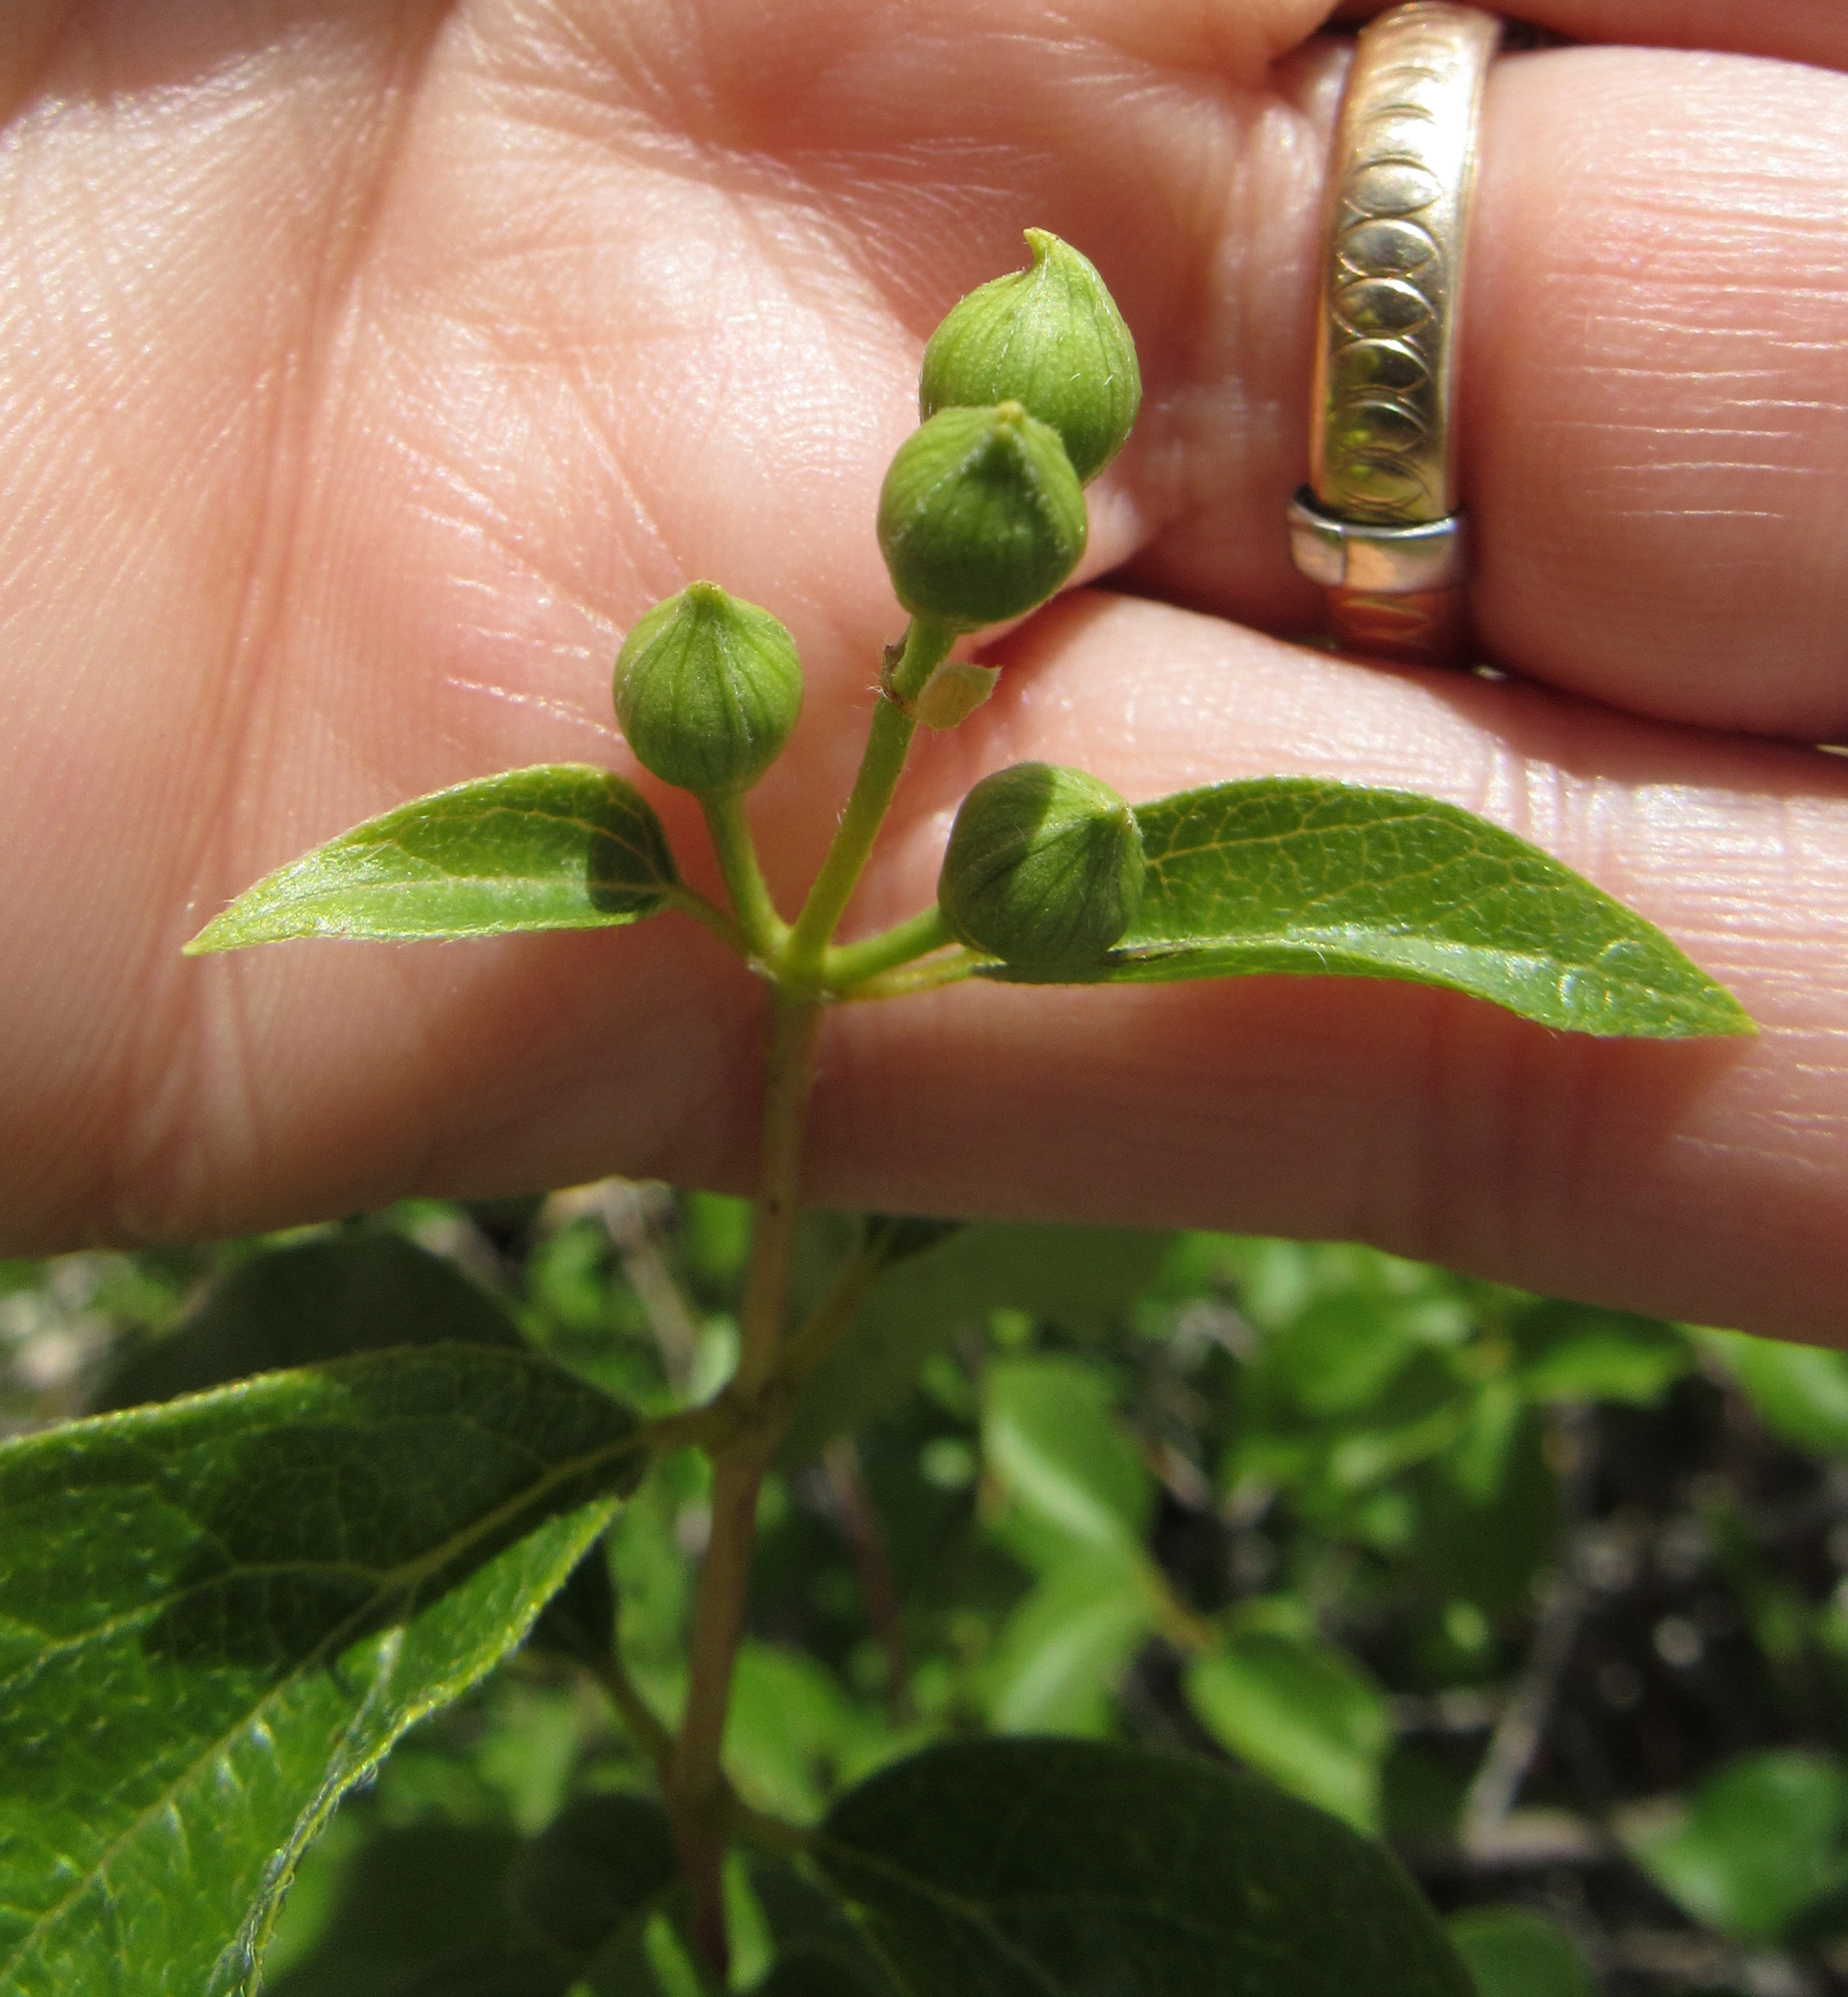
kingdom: Plantae
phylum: Tracheophyta
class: Magnoliopsida
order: Cornales
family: Hydrangeaceae
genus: Philadelphus
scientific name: Philadelphus lewisii
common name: Lewis's mock orange
